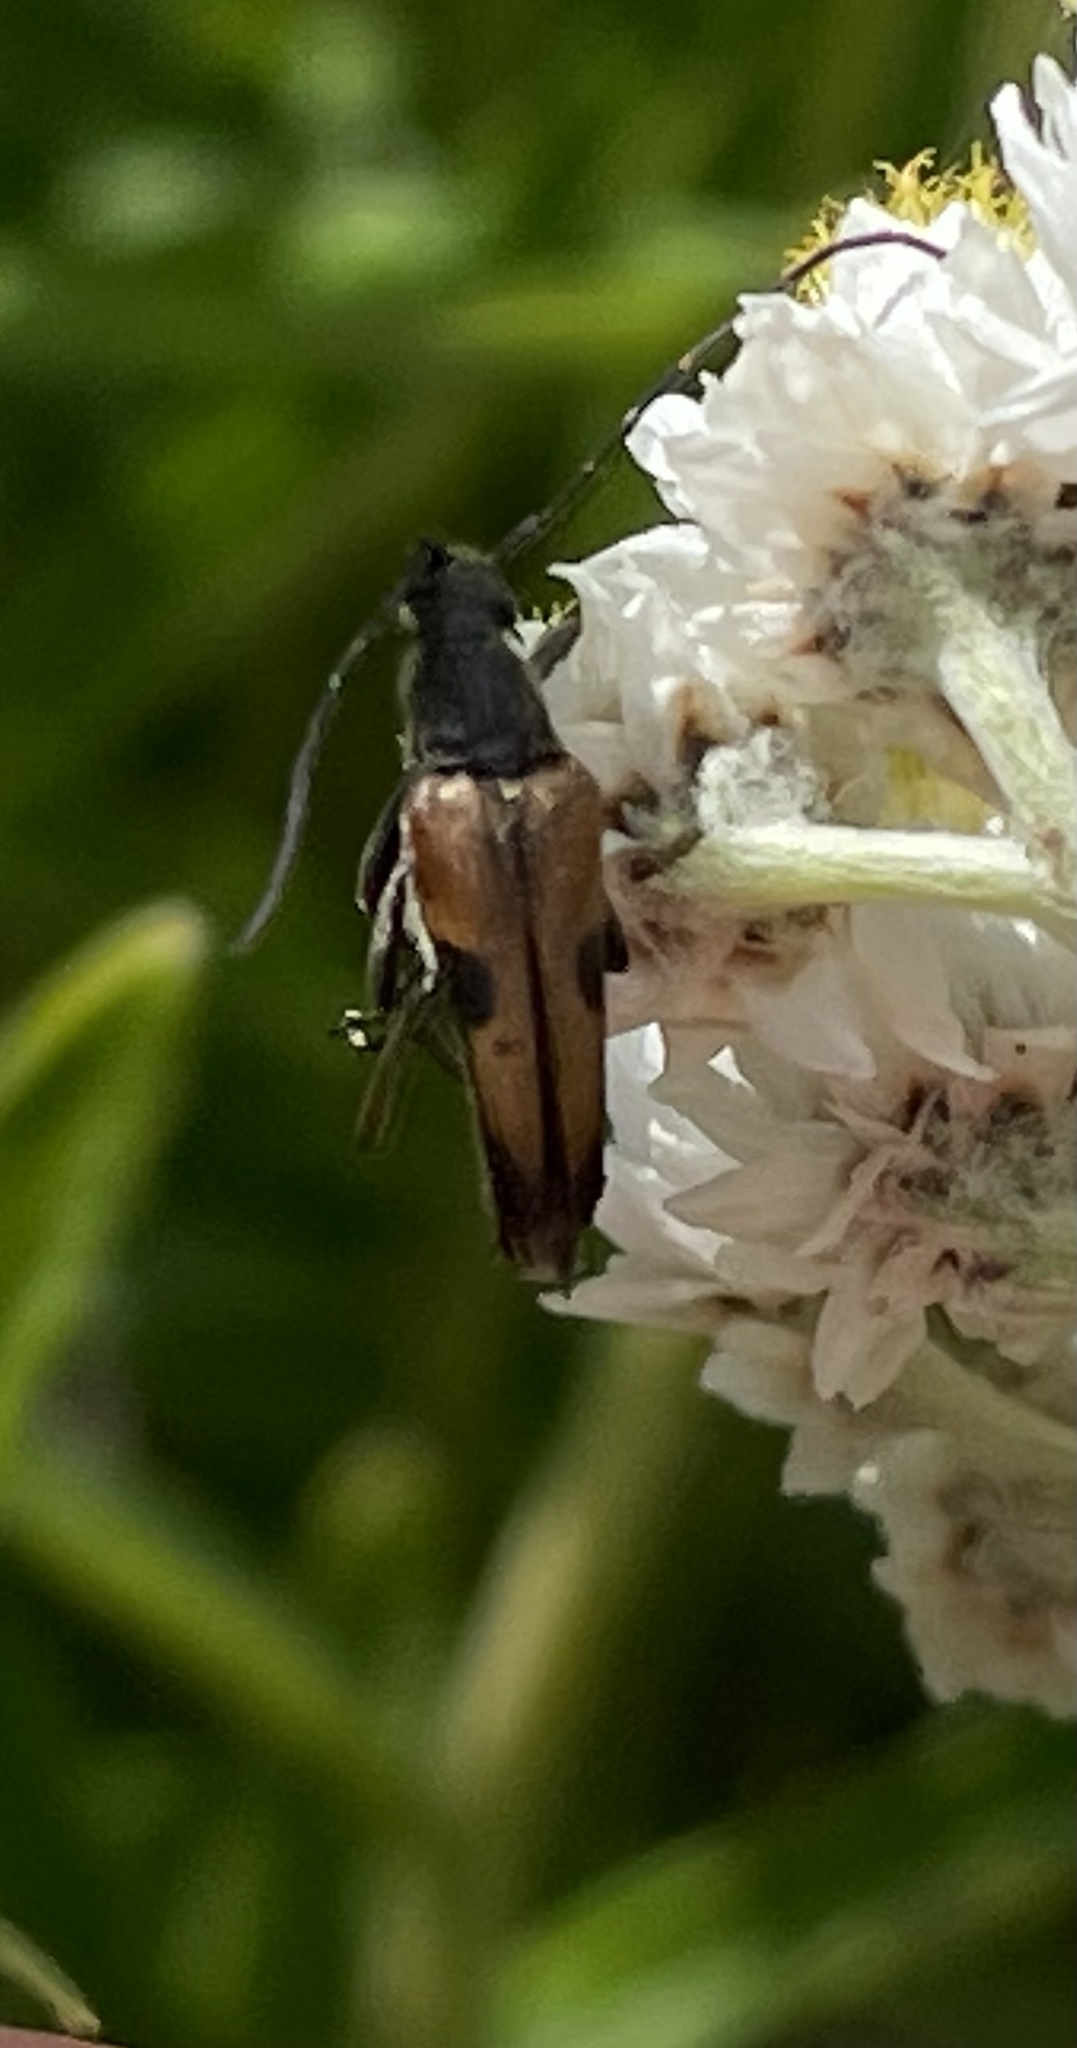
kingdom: Animalia
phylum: Arthropoda
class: Insecta
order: Coleoptera
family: Cerambycidae
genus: Cosmosalia
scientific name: Cosmosalia chrysocoma
